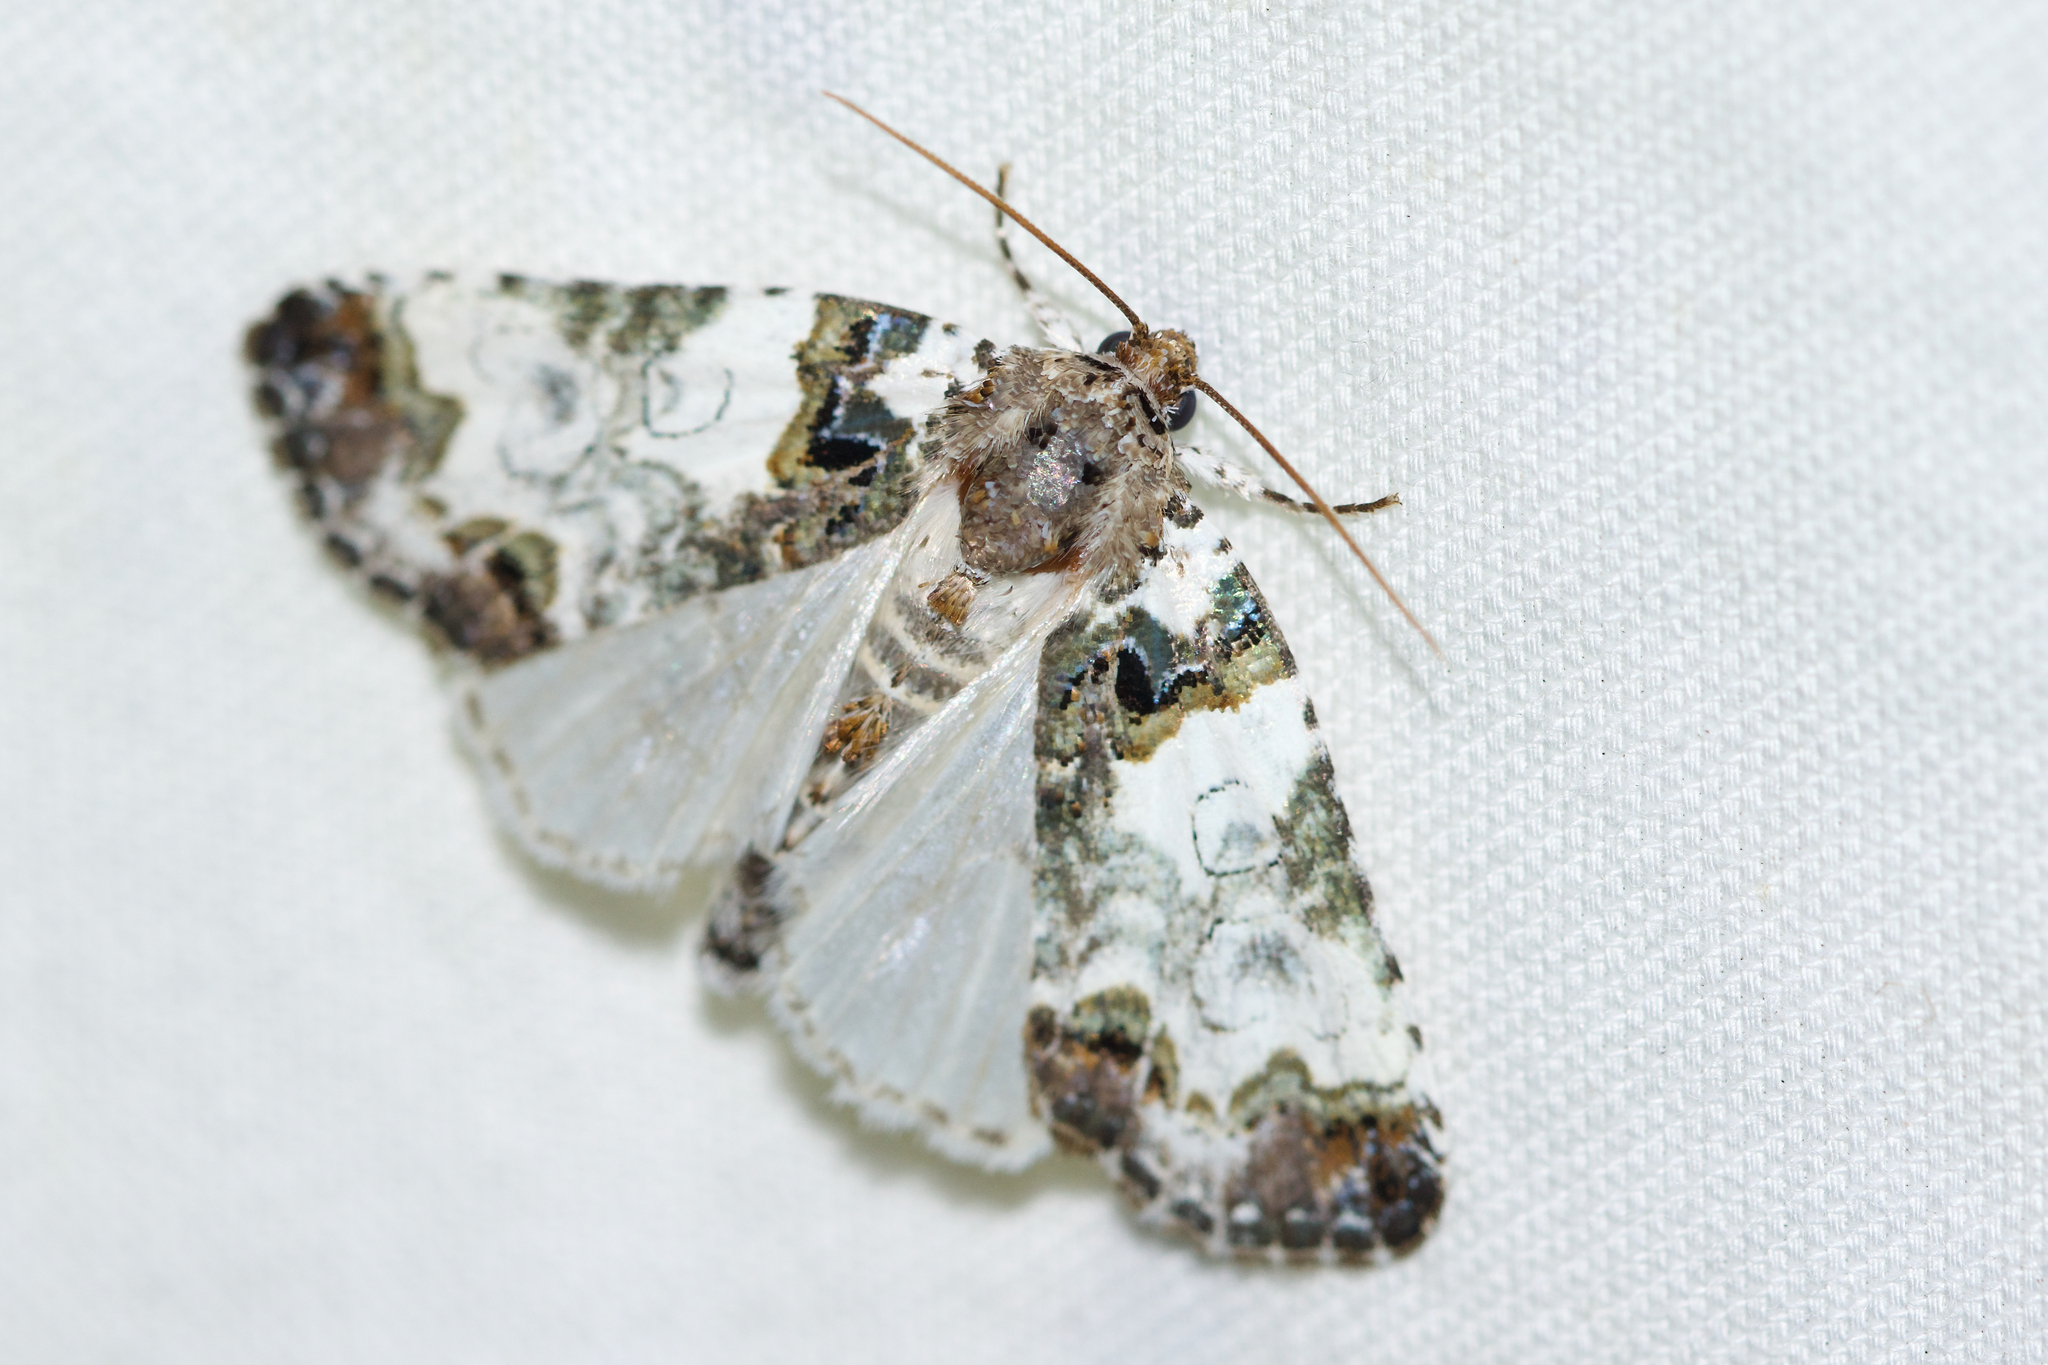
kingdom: Animalia
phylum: Arthropoda
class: Insecta
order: Lepidoptera
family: Noctuidae
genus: Cerma
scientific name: Cerma cerintha
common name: Tufted bird-dropping moth
